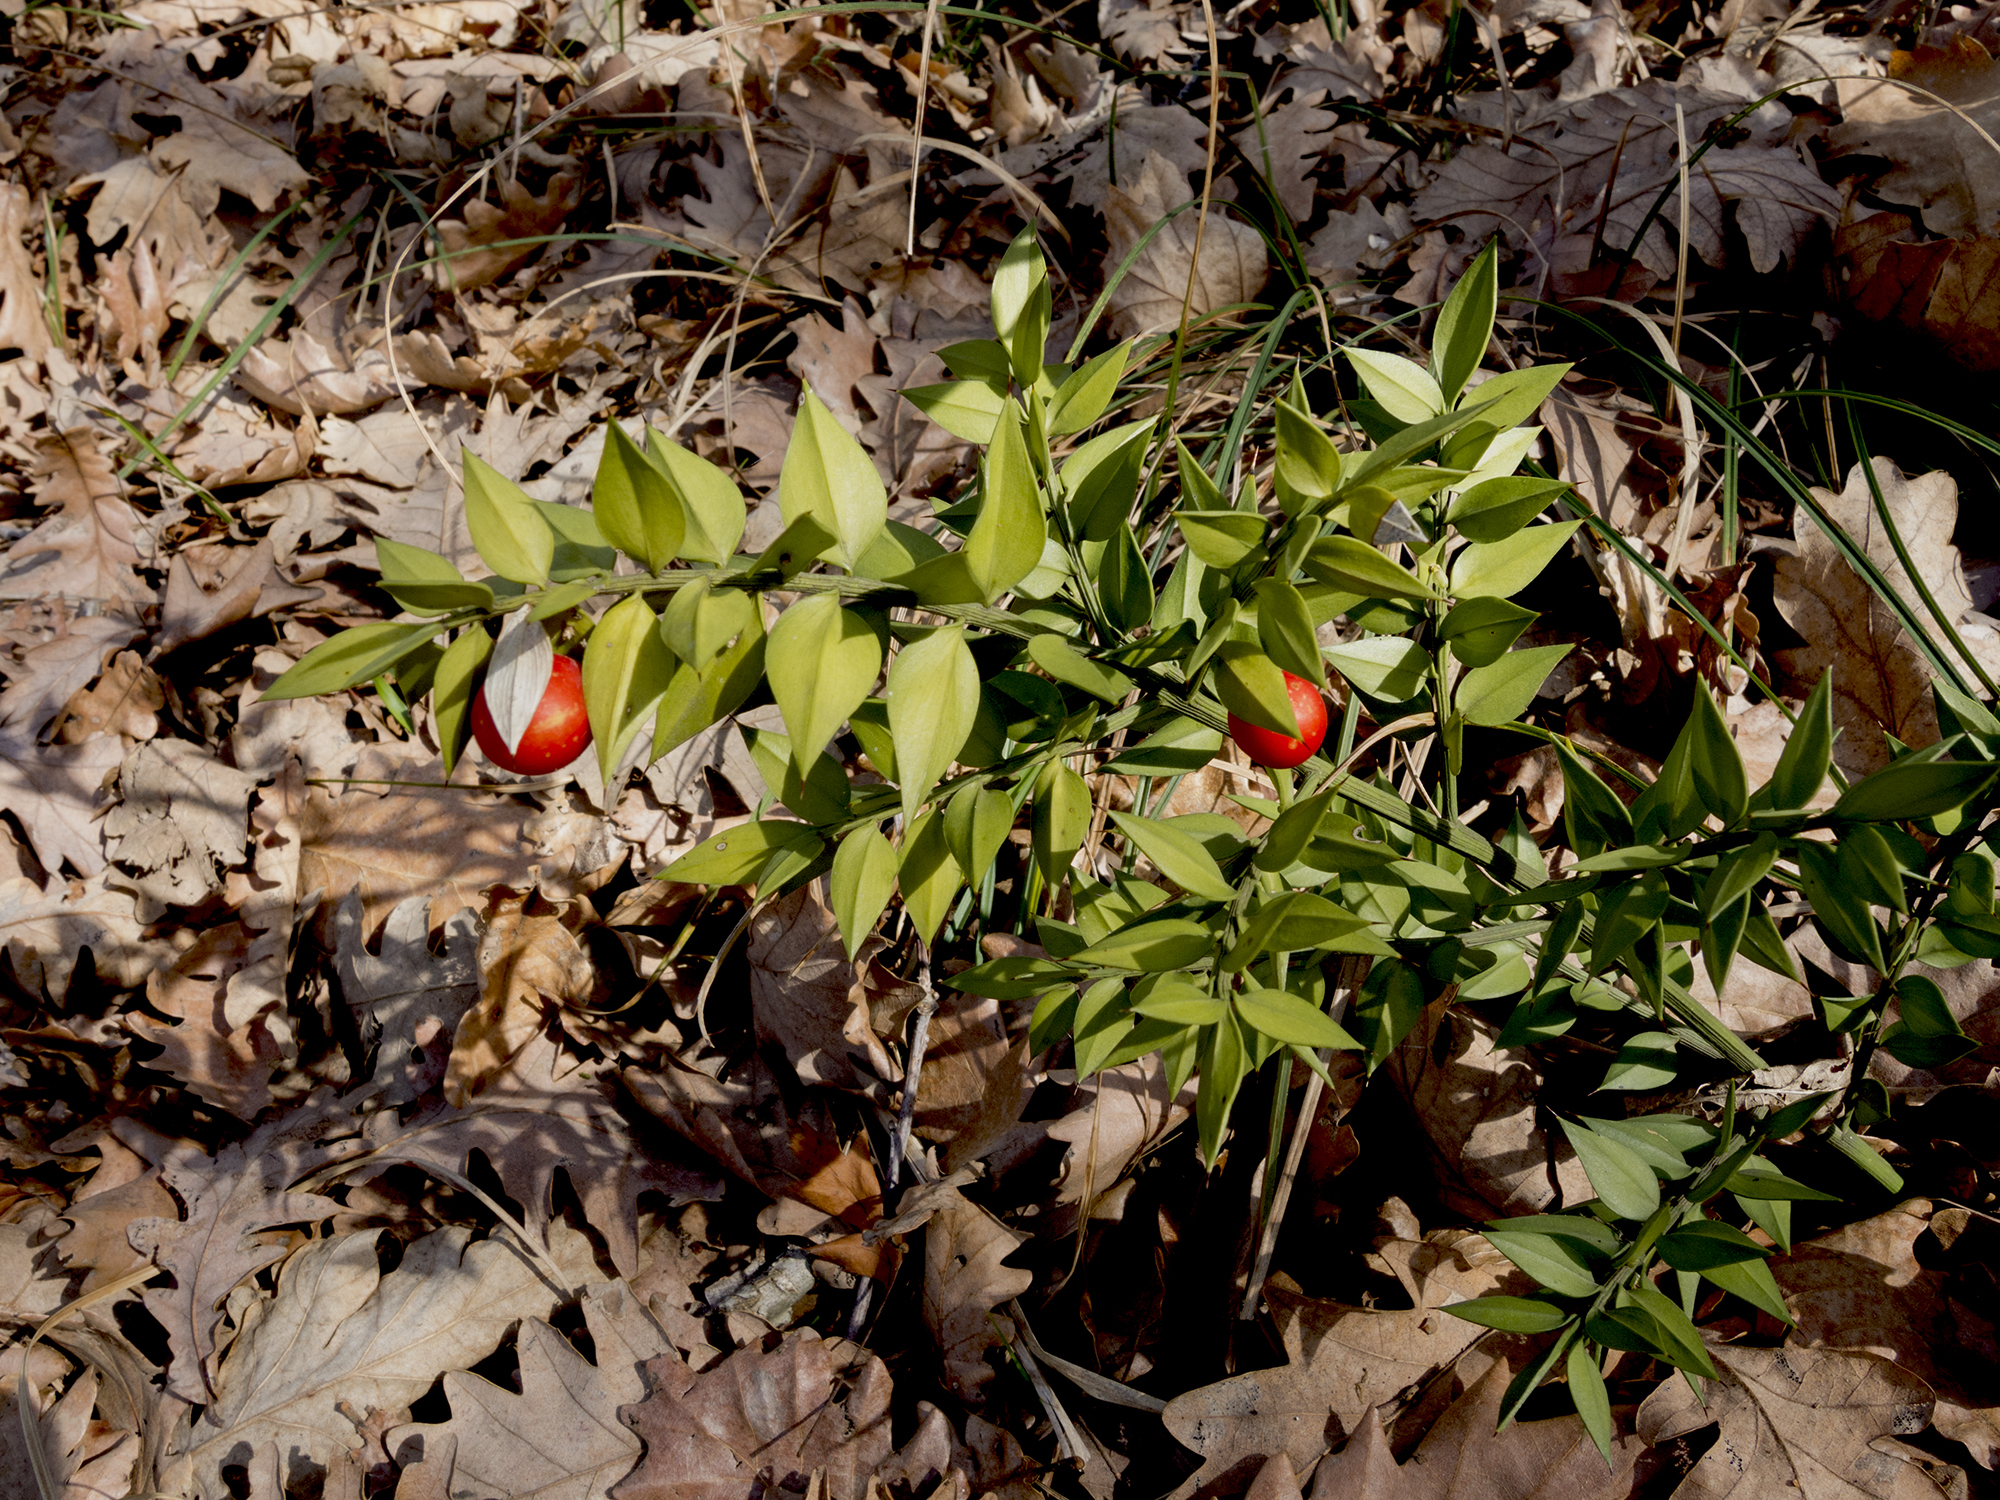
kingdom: Plantae
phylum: Tracheophyta
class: Liliopsida
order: Asparagales
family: Asparagaceae
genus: Ruscus
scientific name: Ruscus aculeatus
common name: Butcher's-broom
